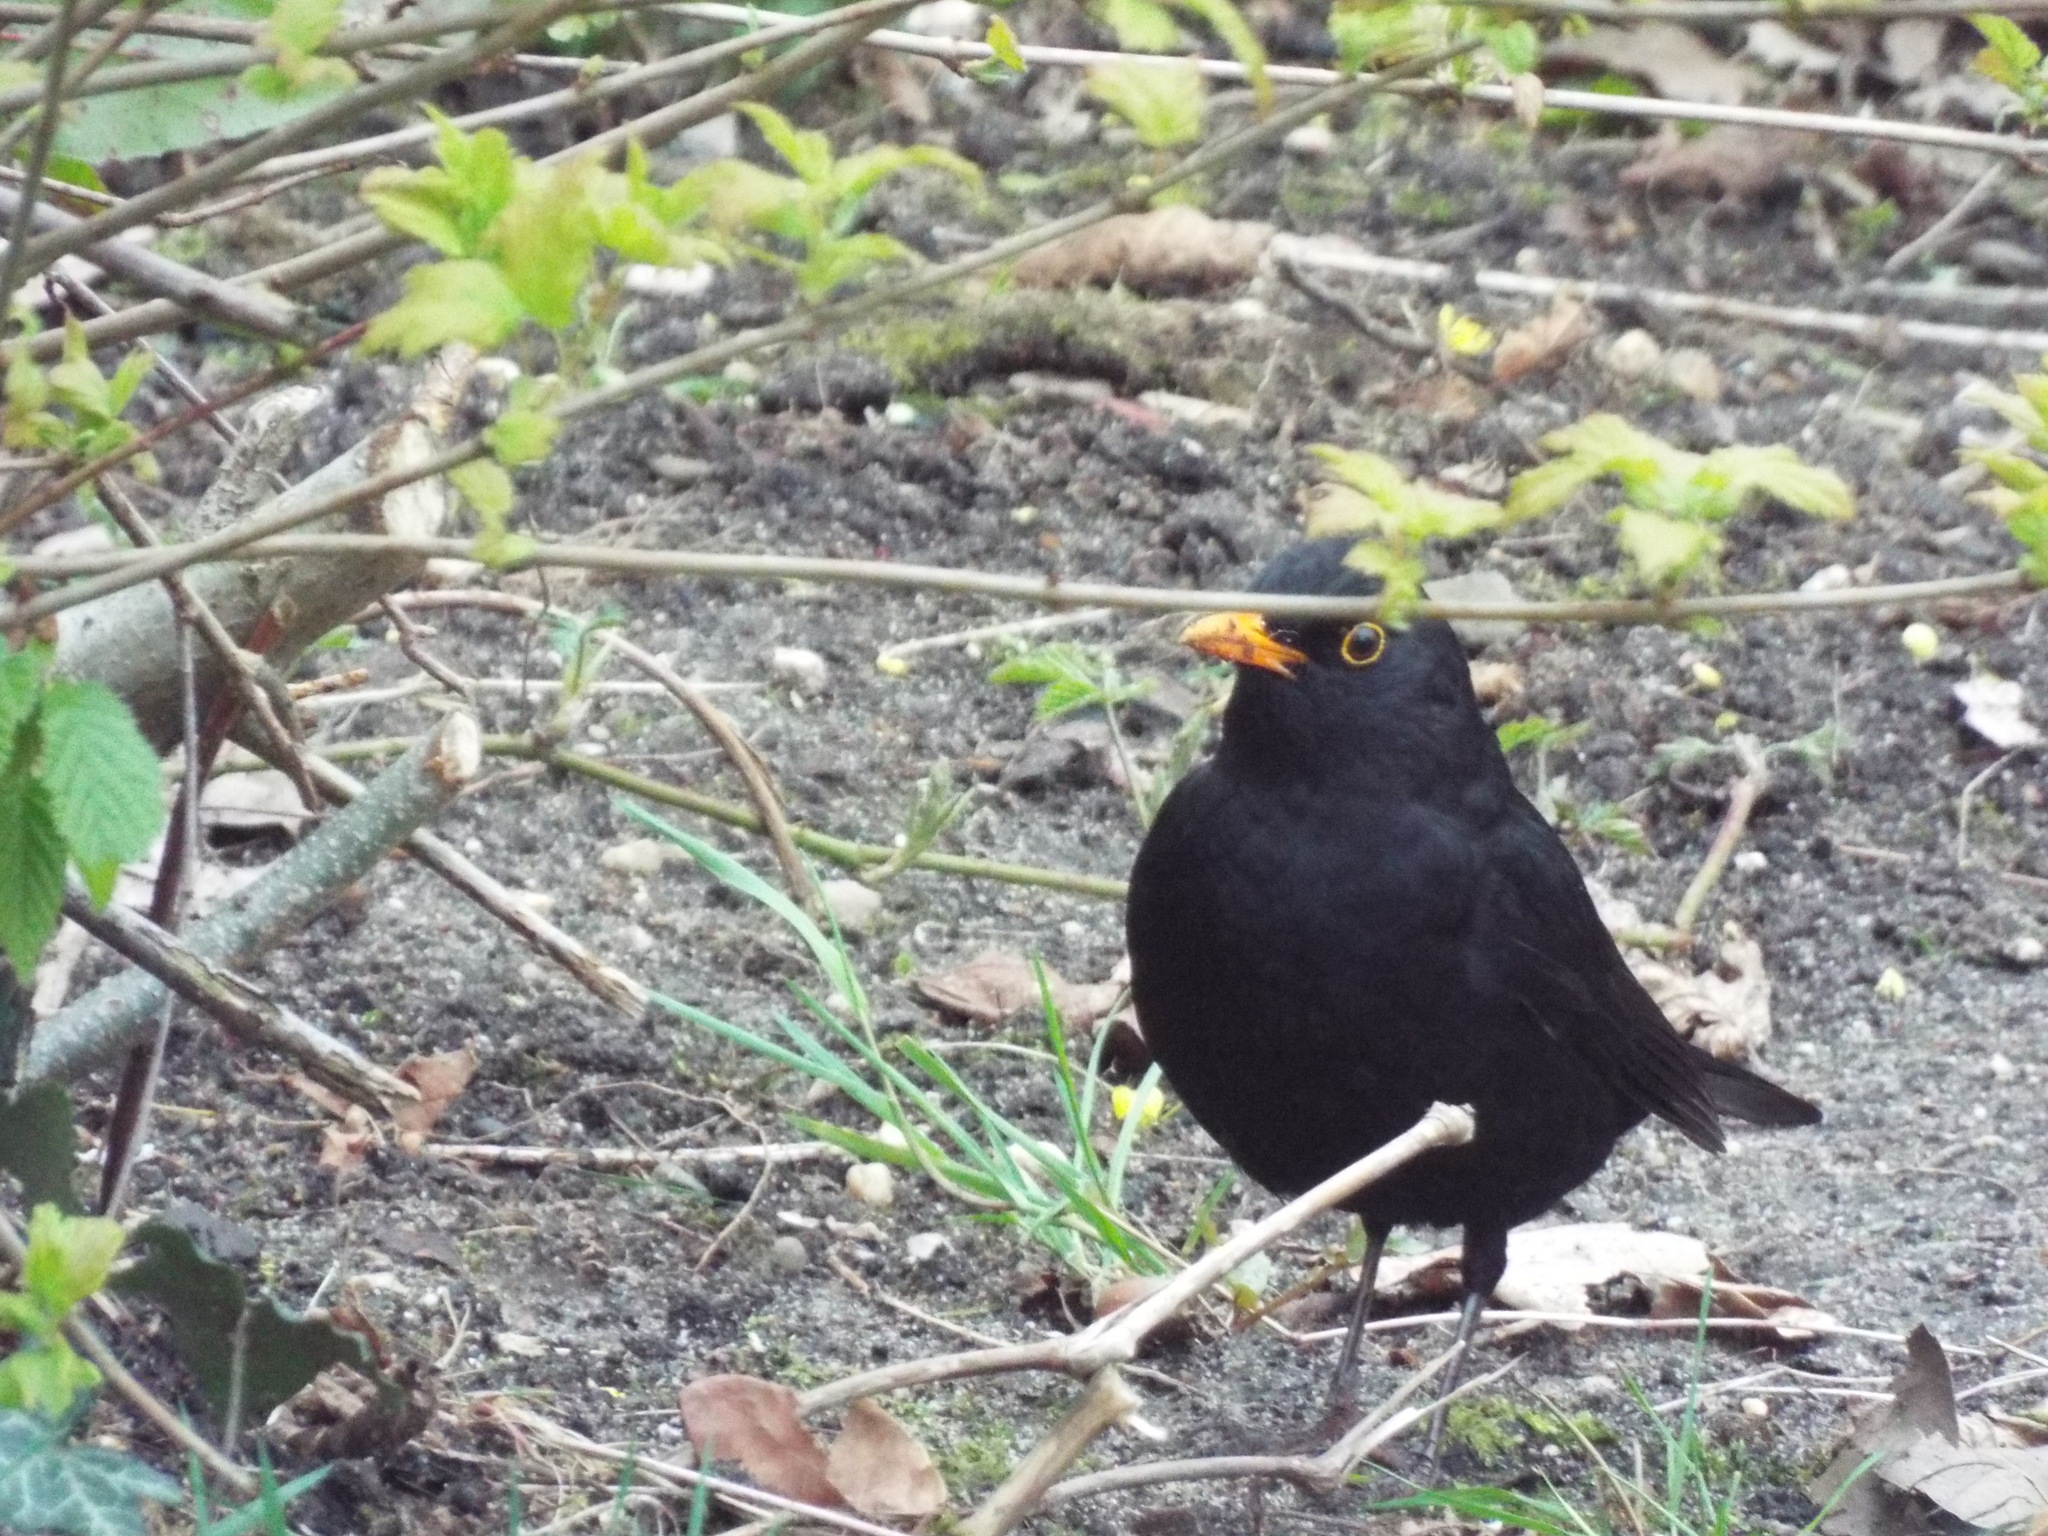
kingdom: Animalia
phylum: Chordata
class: Aves
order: Passeriformes
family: Turdidae
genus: Turdus
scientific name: Turdus merula
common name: Common blackbird
